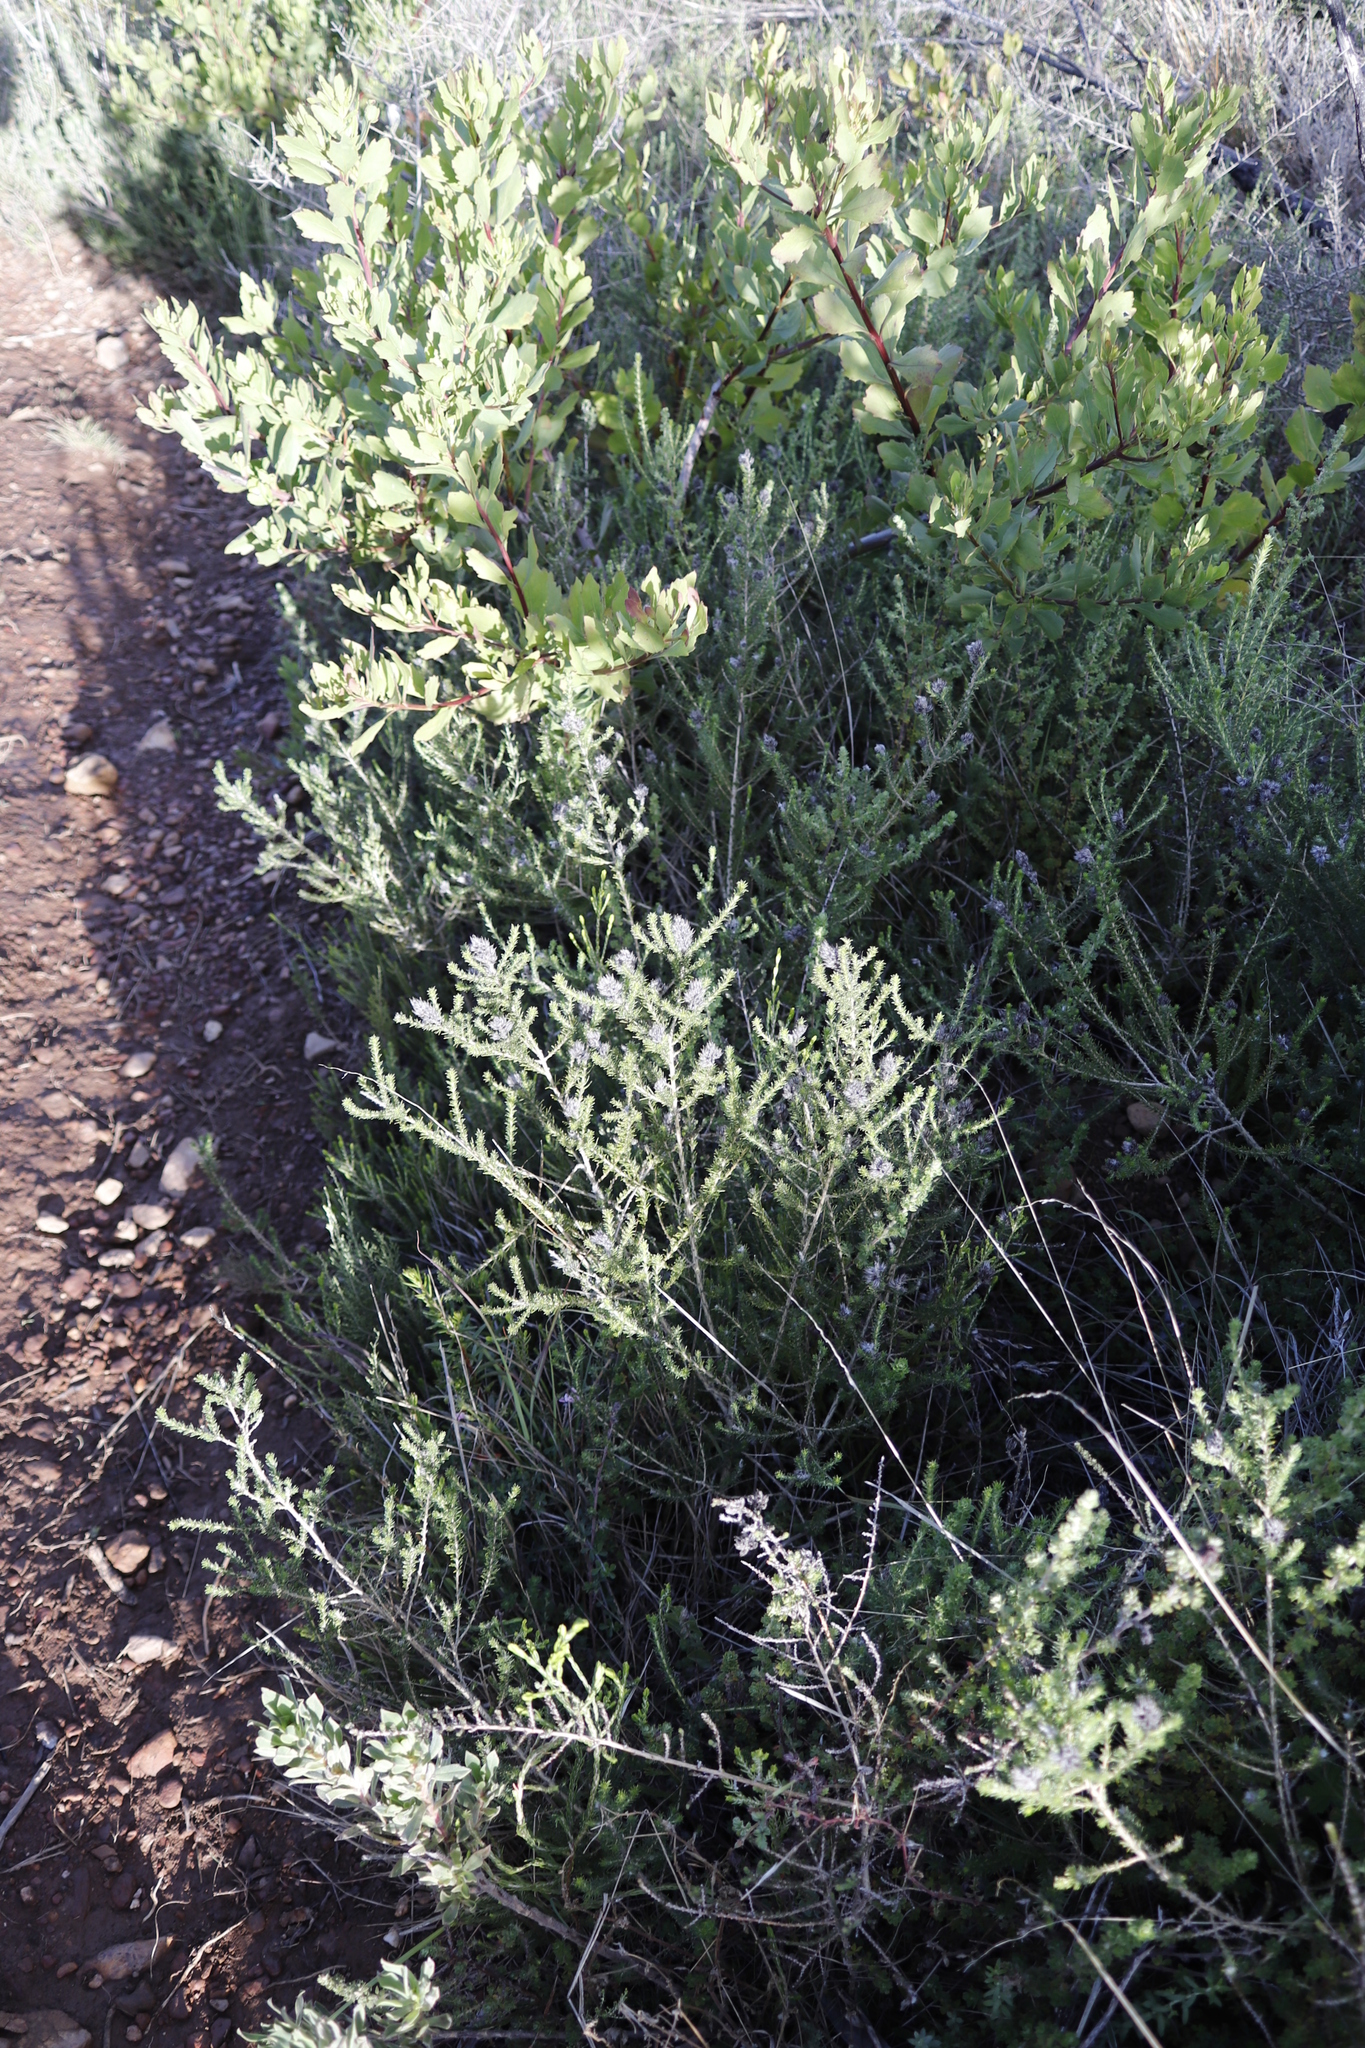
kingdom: Plantae
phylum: Tracheophyta
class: Magnoliopsida
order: Fabales
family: Fabaceae
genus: Aspalathus
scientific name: Aspalathus cephalotes
